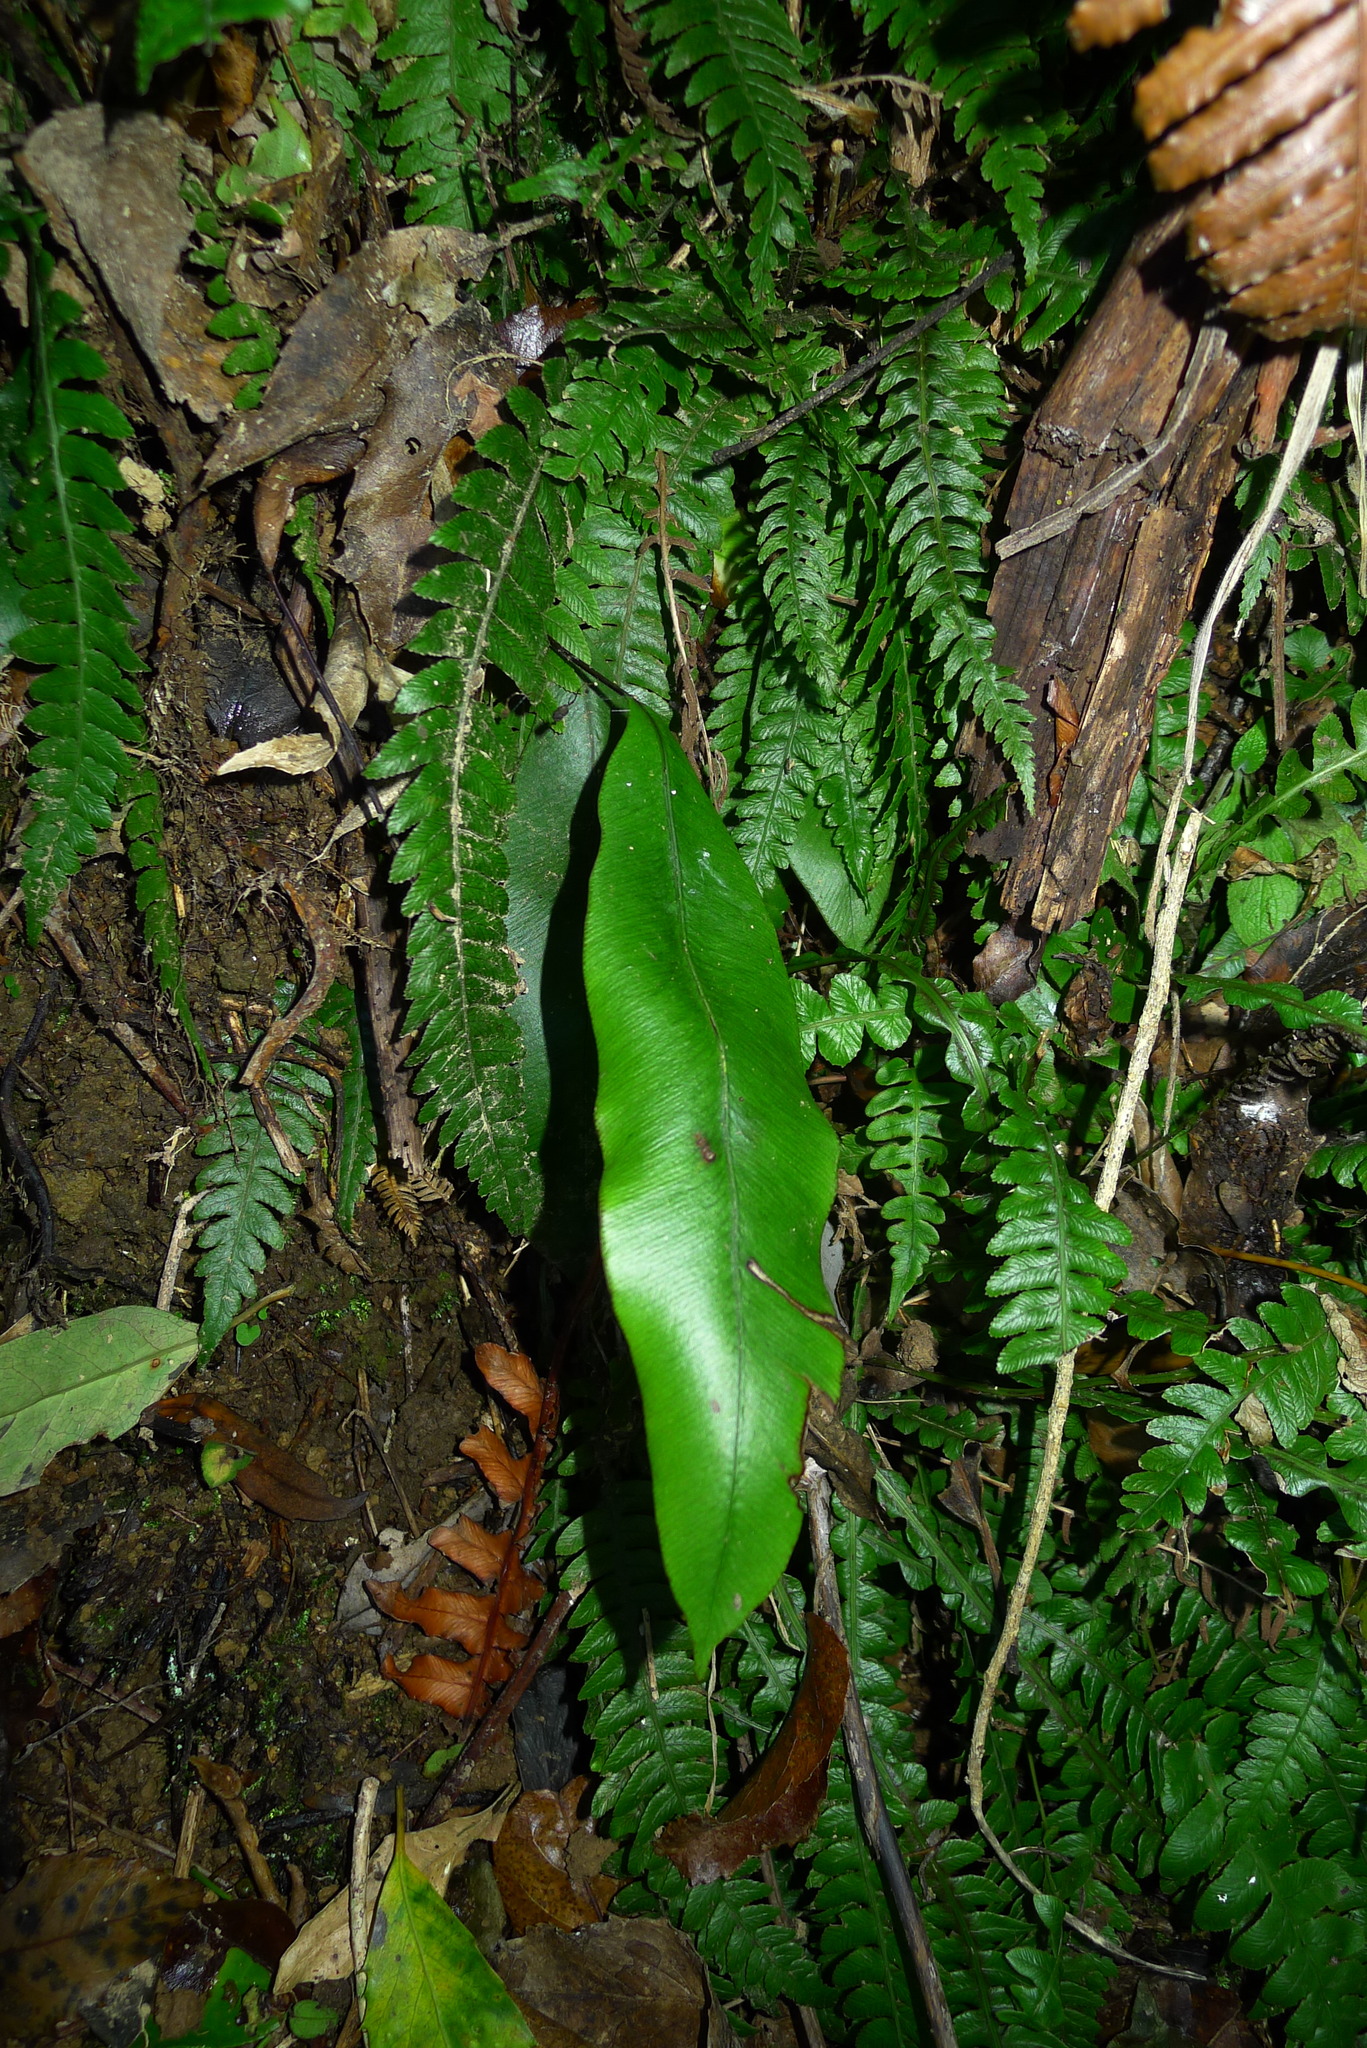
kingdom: Plantae
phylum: Tracheophyta
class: Polypodiopsida
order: Polypodiales
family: Blechnaceae
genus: Austroblechnum
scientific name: Austroblechnum colensoi
